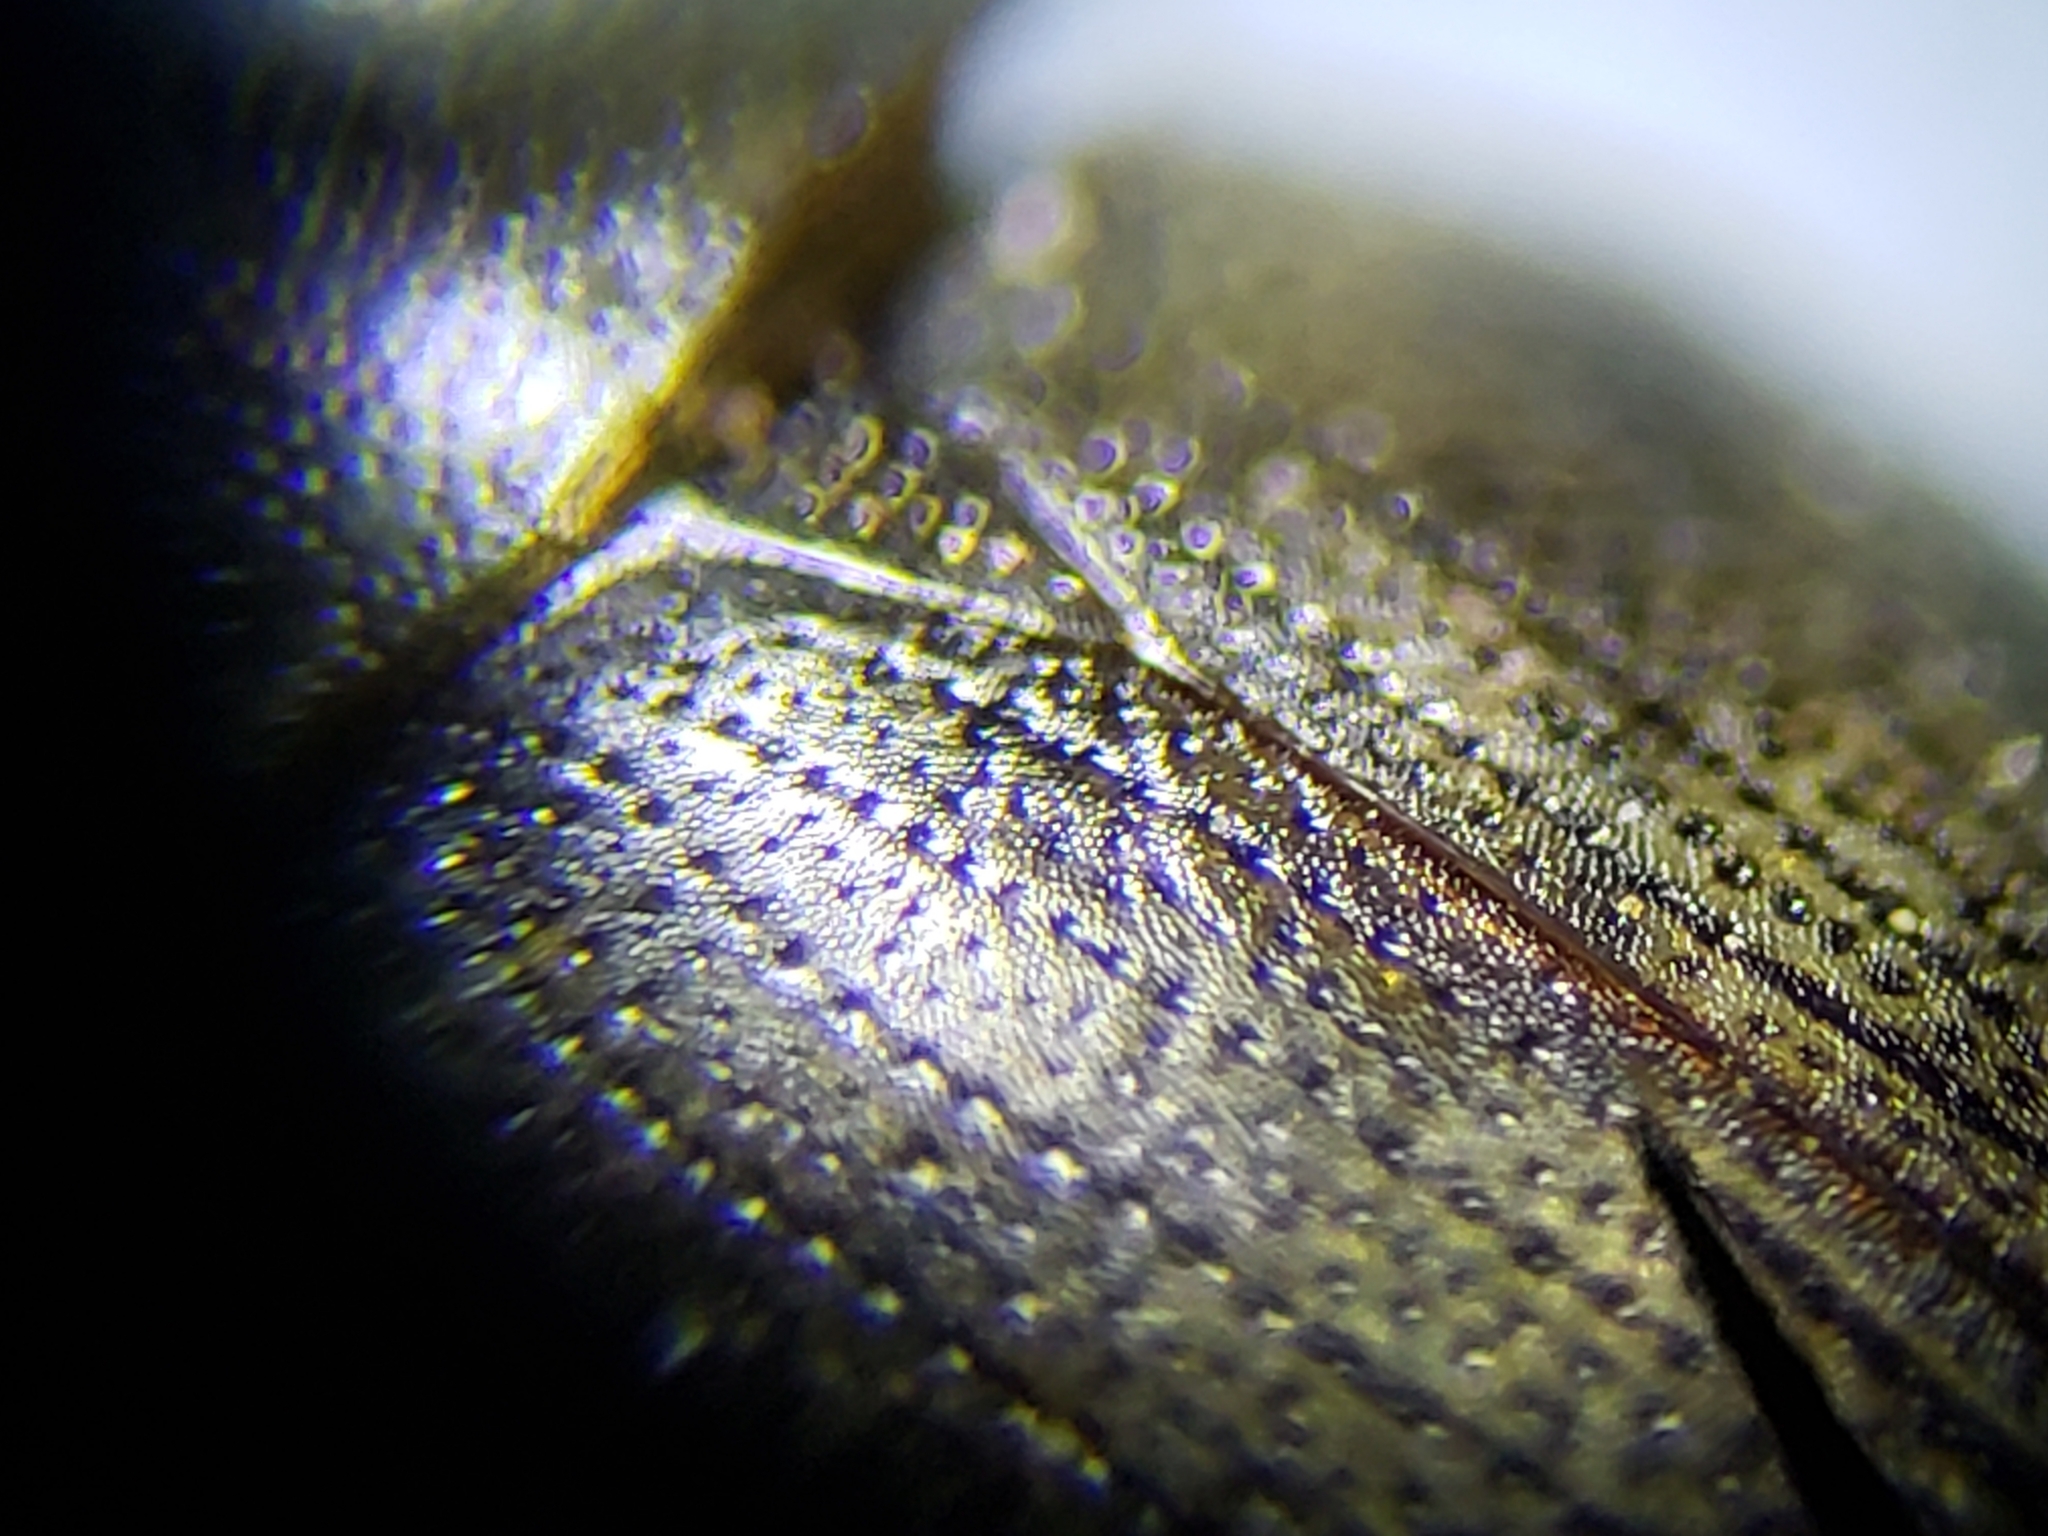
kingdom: Animalia
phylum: Arthropoda
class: Insecta
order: Coleoptera
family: Hydrophilidae
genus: Berosus
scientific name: Berosus infuscatus
